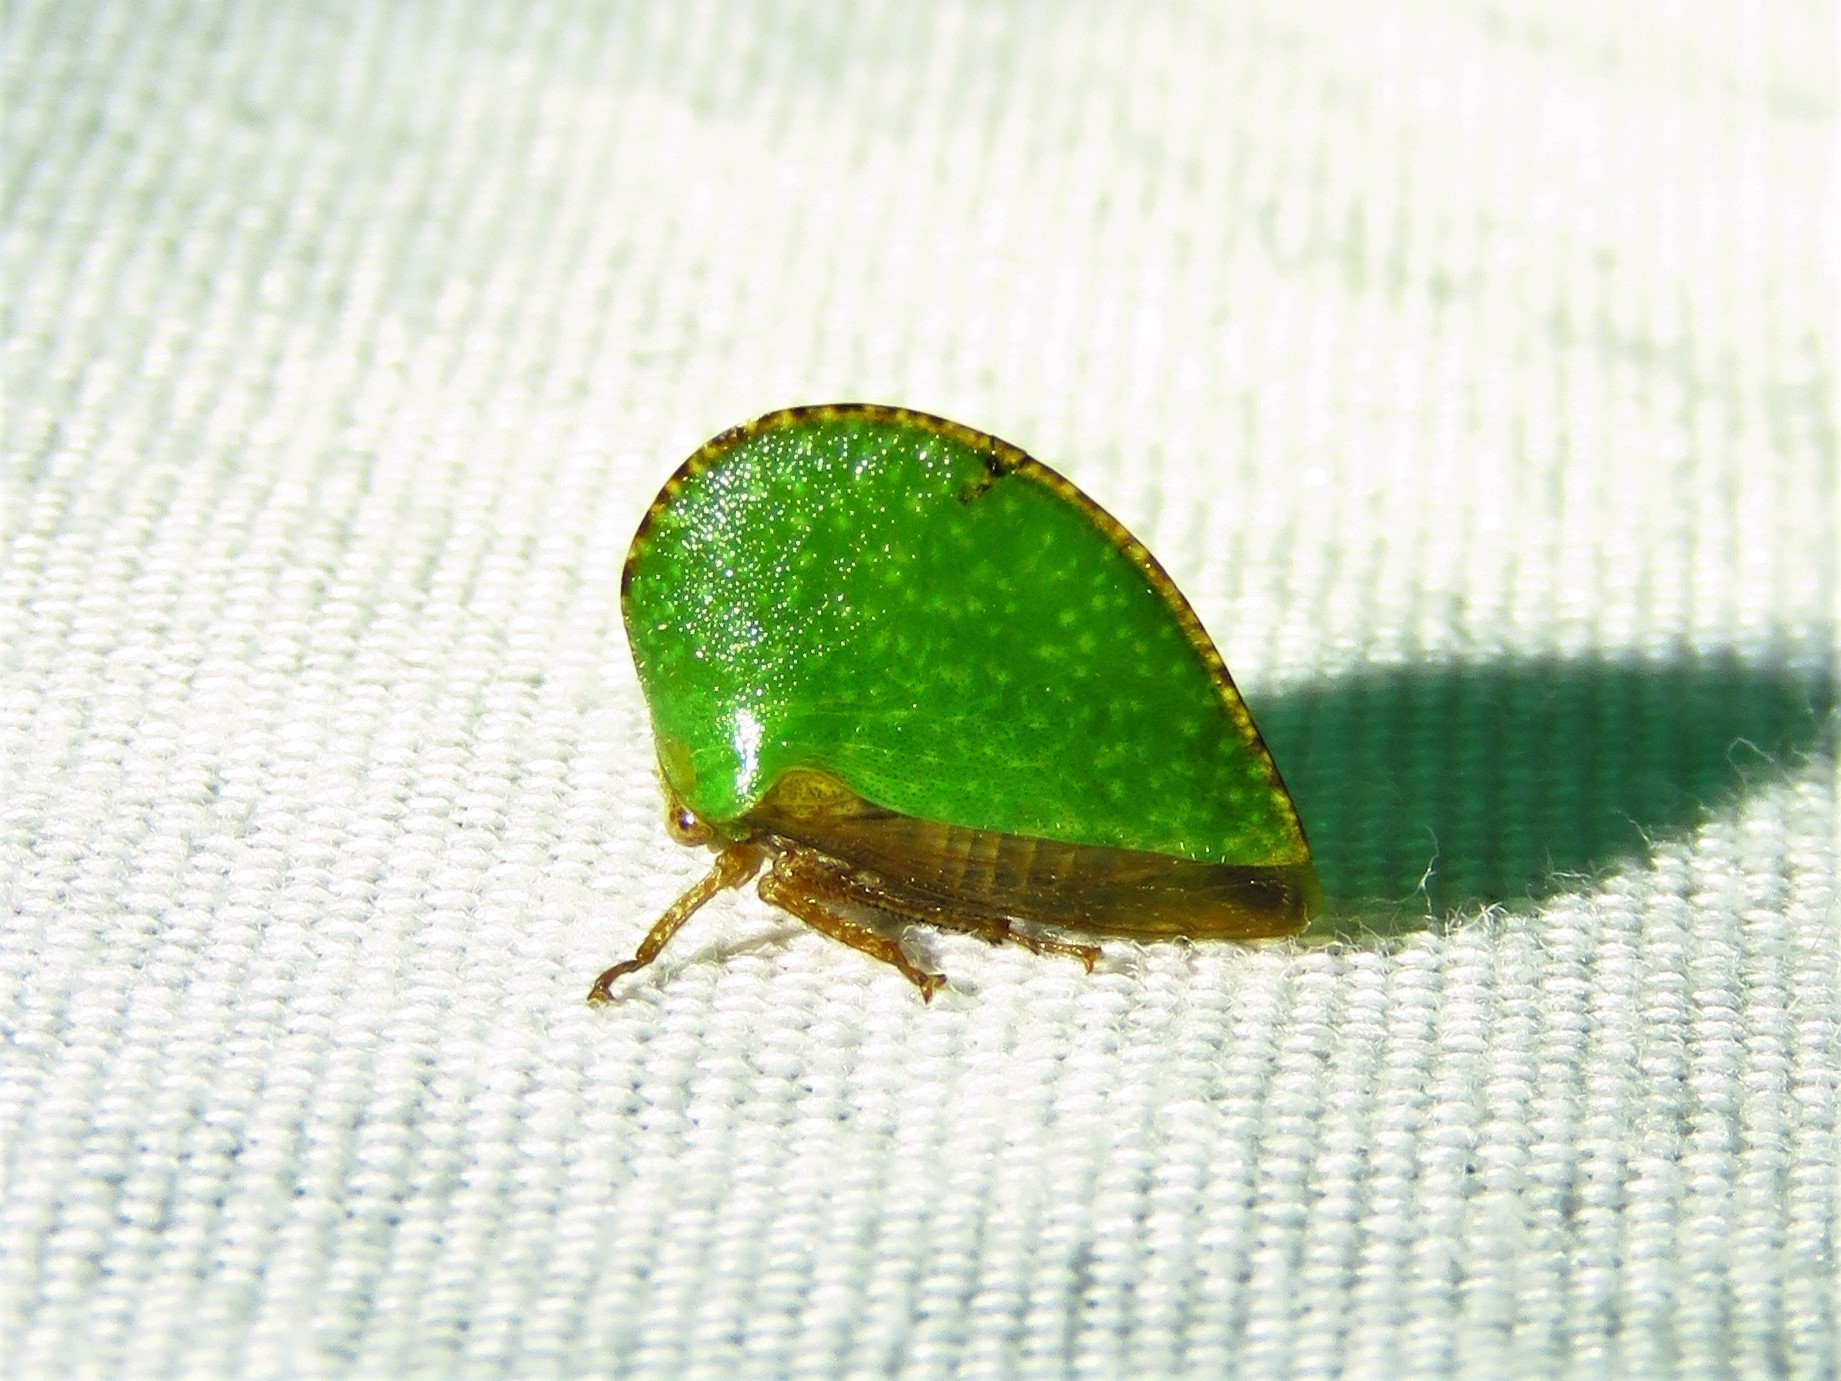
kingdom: Animalia
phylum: Arthropoda
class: Insecta
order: Hemiptera
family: Membracidae
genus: Archasia
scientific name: Archasia auriculata
